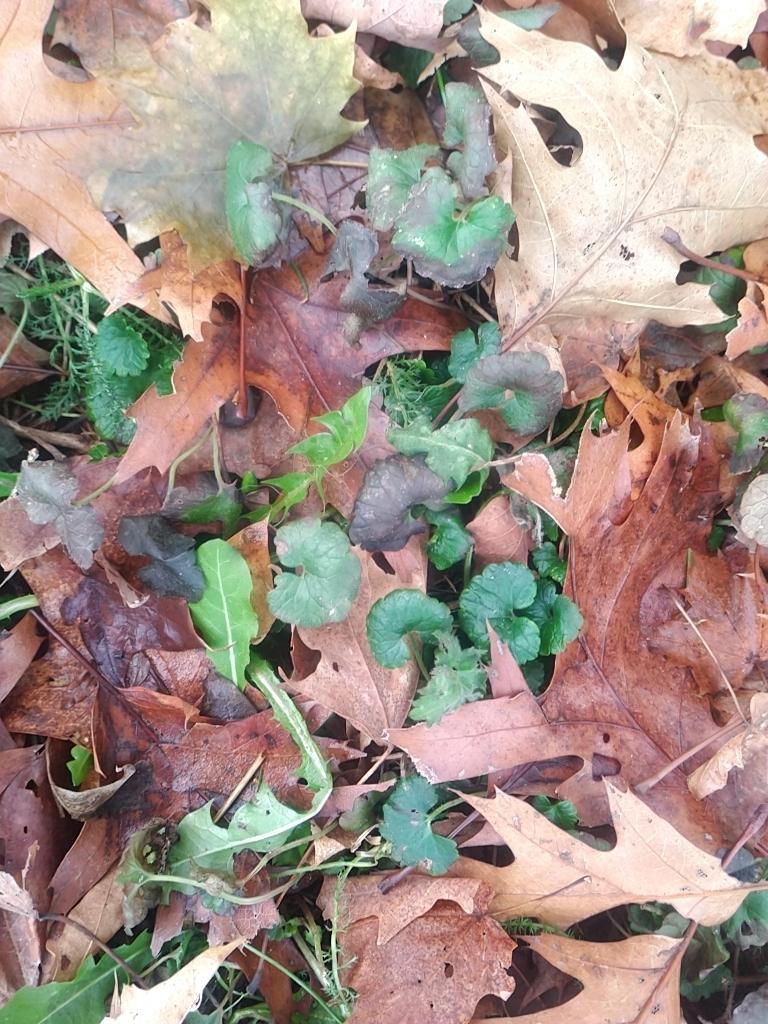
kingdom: Plantae
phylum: Tracheophyta
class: Magnoliopsida
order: Lamiales
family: Lamiaceae
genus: Glechoma
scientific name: Glechoma hederacea
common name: Ground ivy
